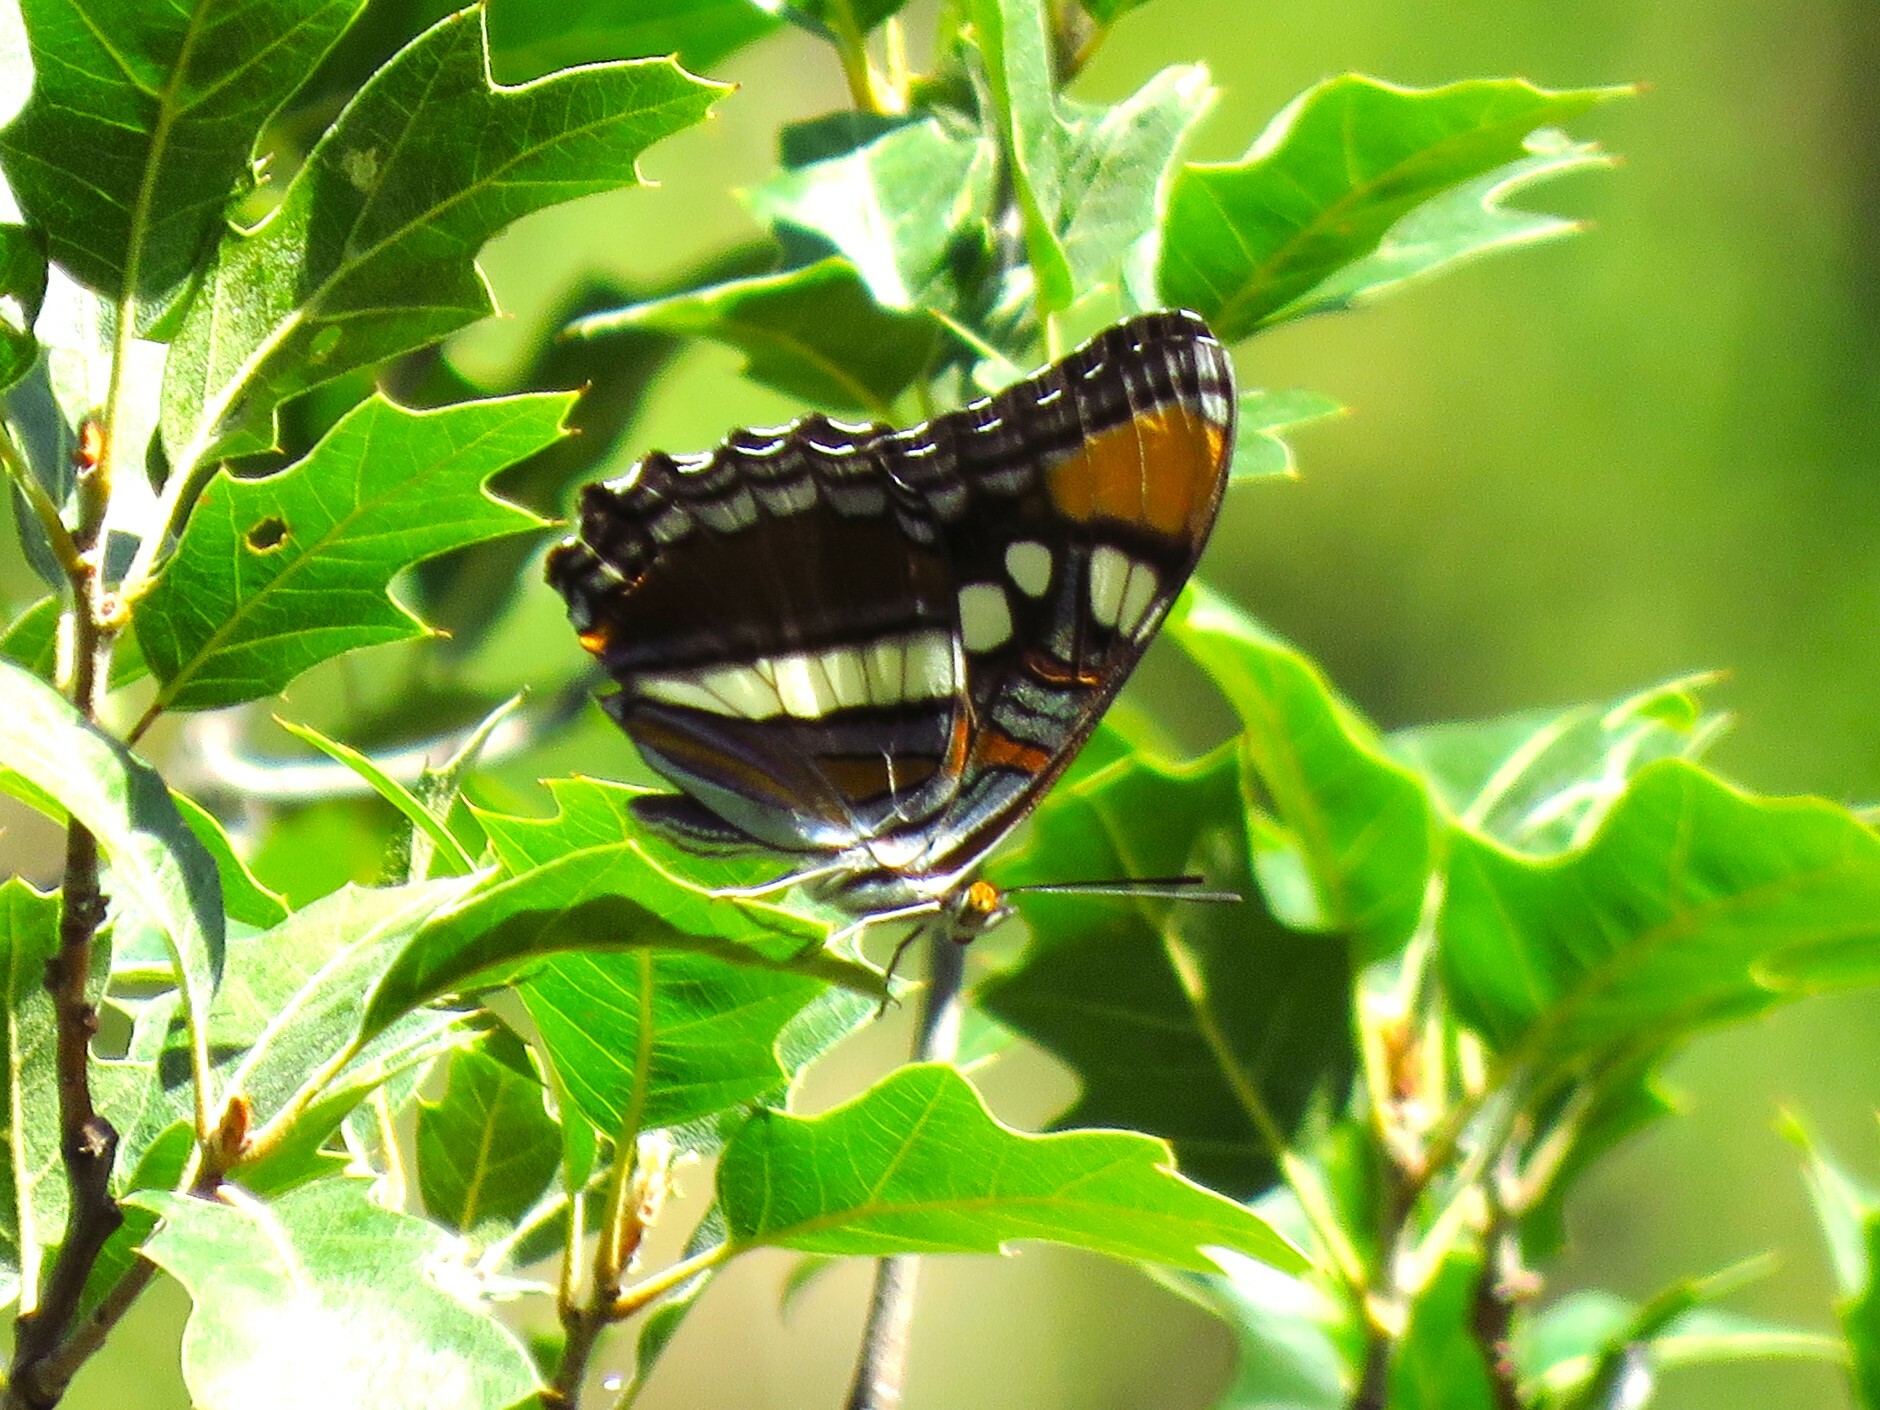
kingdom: Animalia
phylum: Arthropoda
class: Insecta
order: Lepidoptera
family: Nymphalidae
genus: Limenitis
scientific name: Limenitis bredowii
